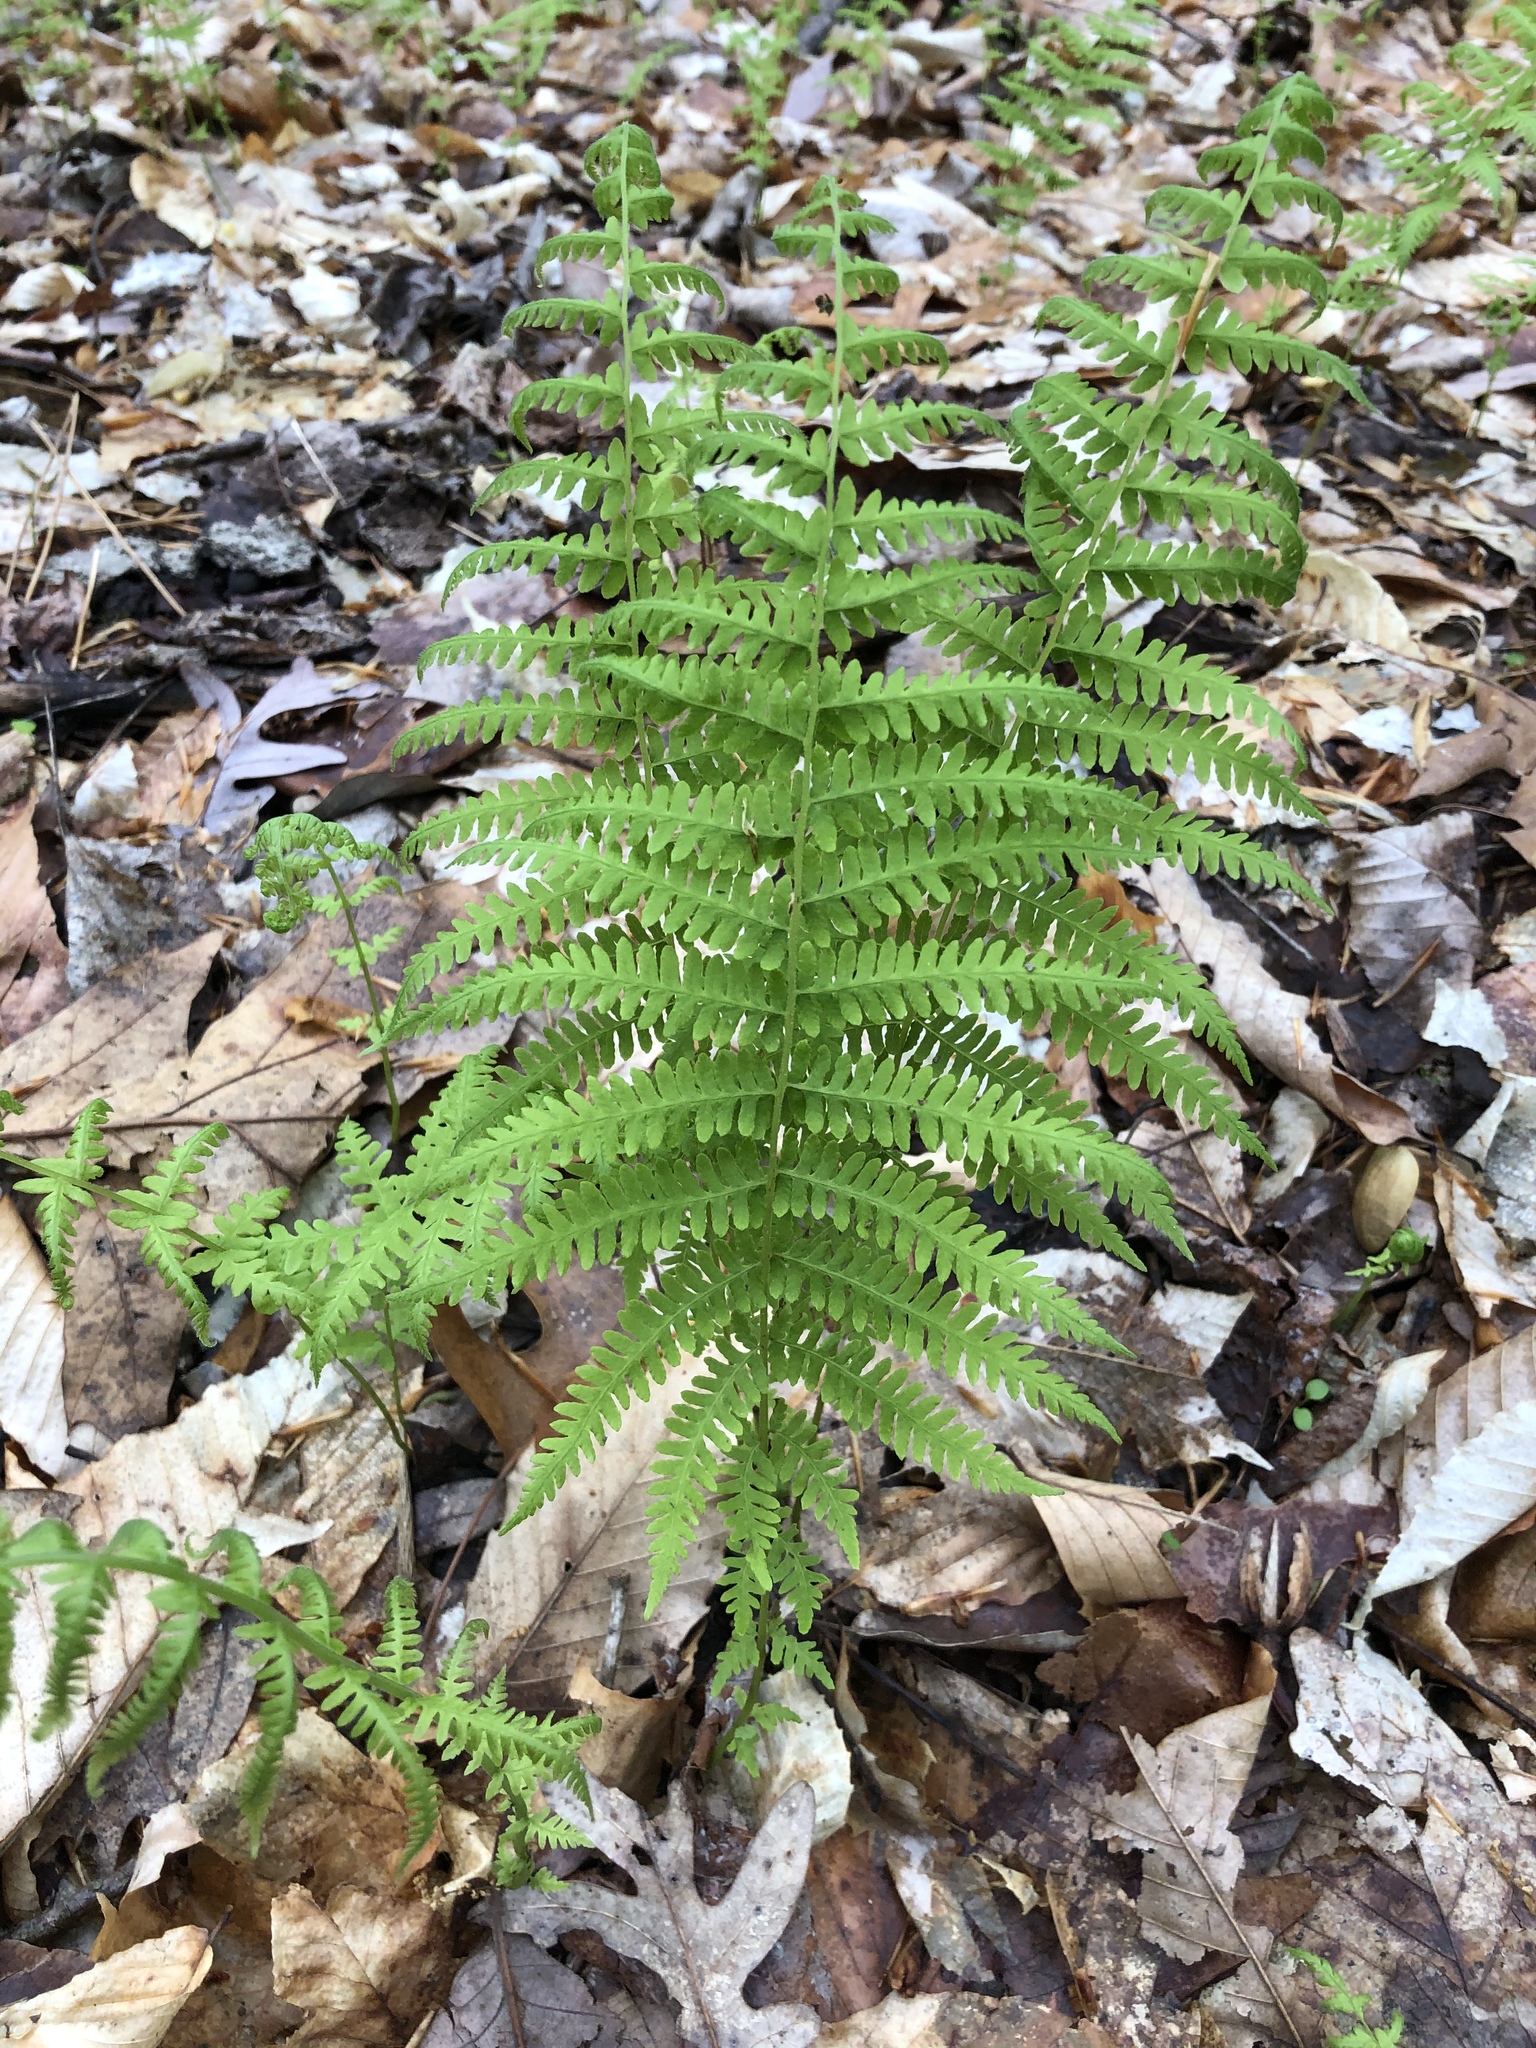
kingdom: Plantae
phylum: Tracheophyta
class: Polypodiopsida
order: Polypodiales
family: Thelypteridaceae
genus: Amauropelta
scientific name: Amauropelta noveboracensis
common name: New york fern
